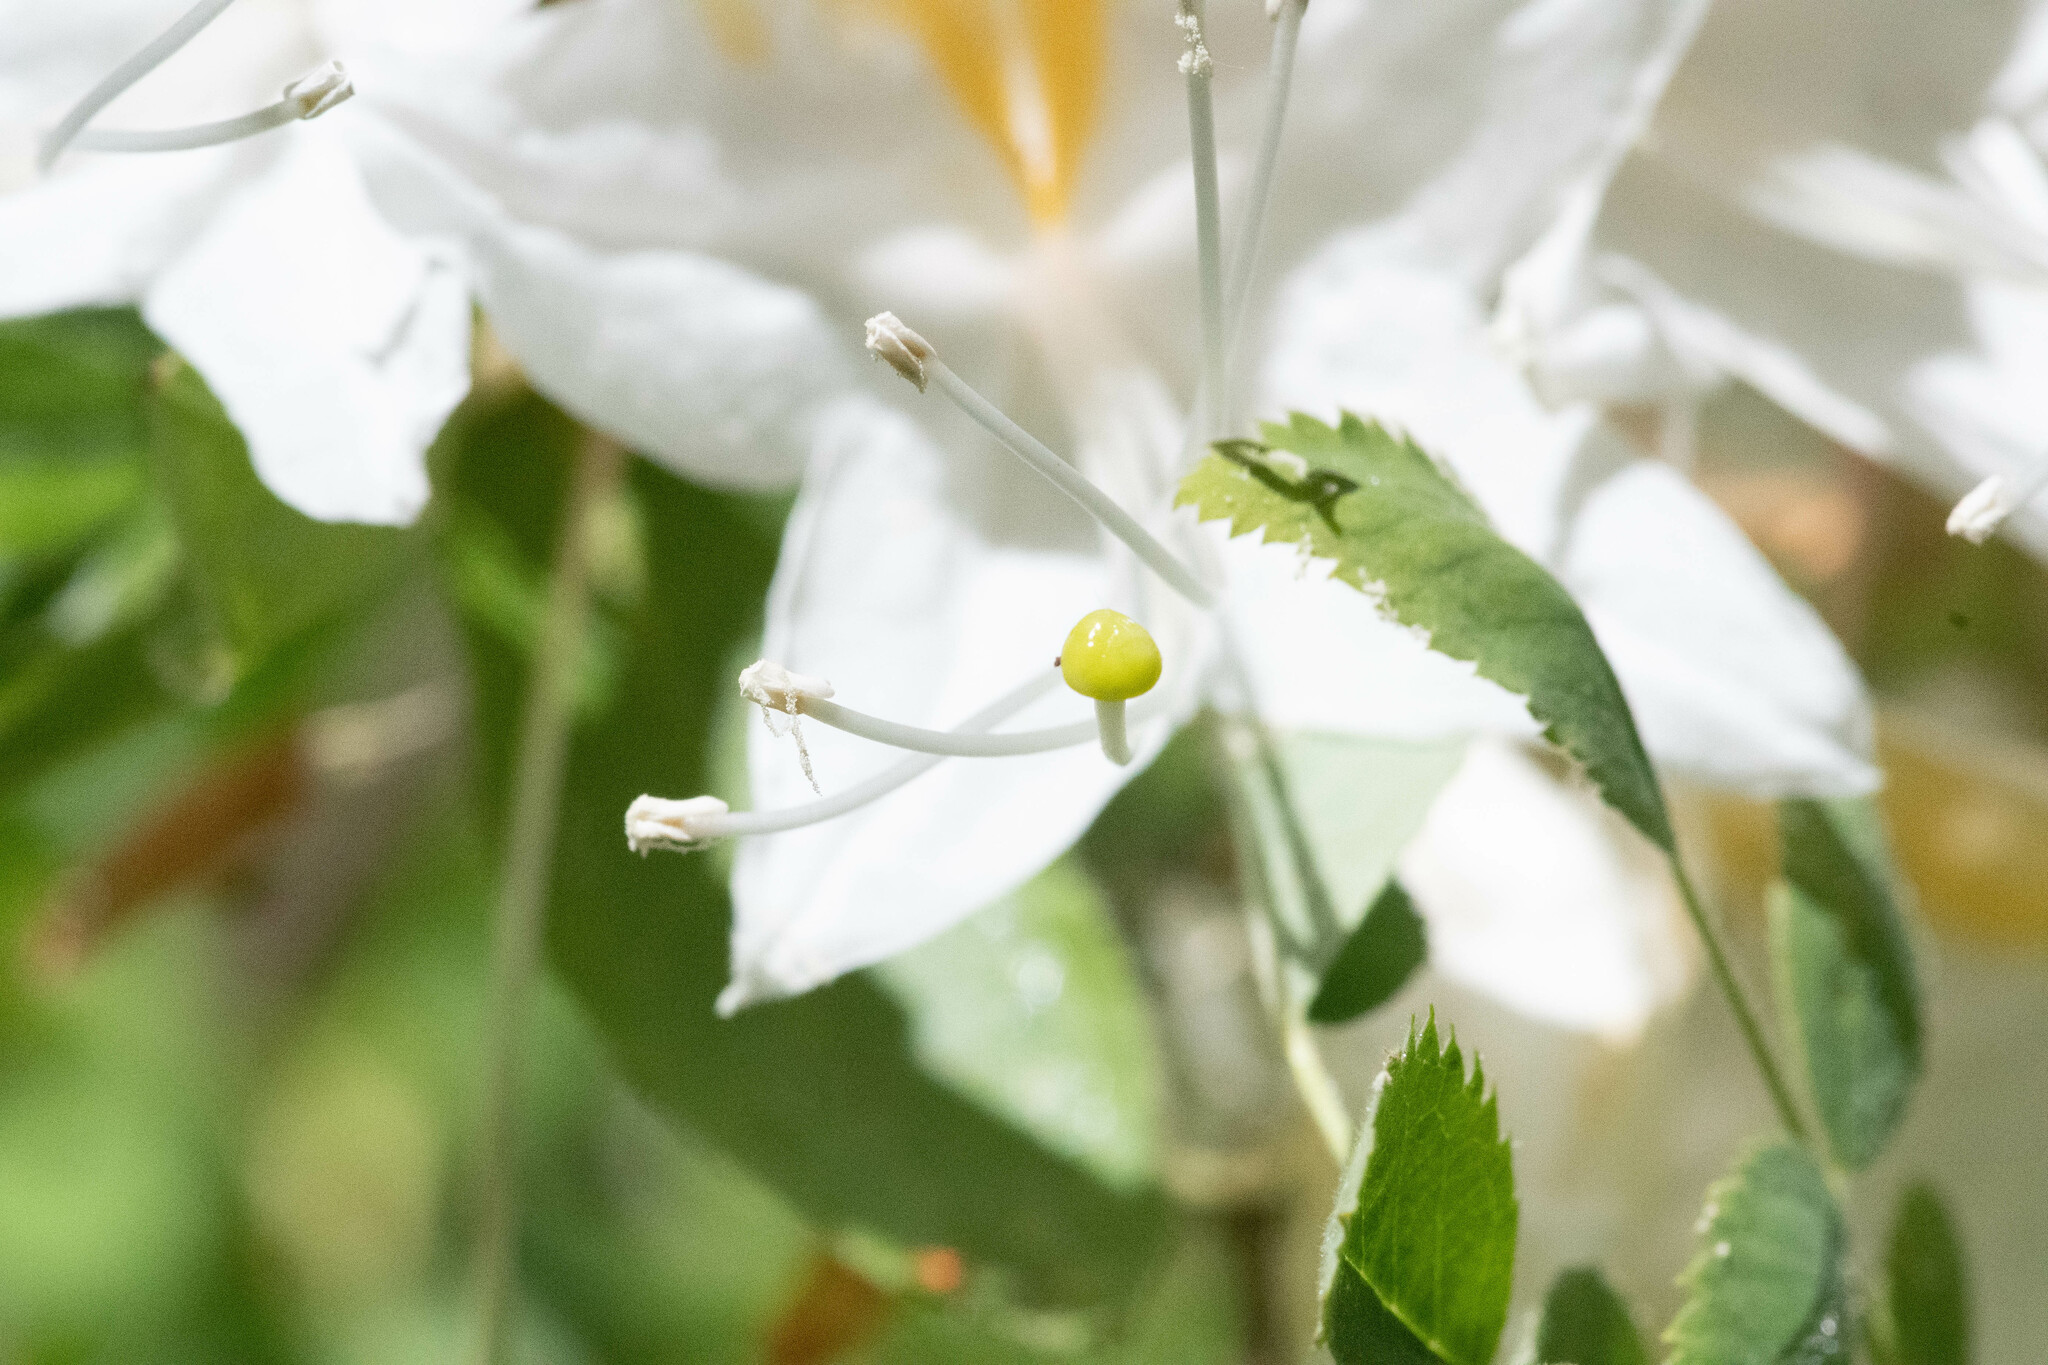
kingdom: Plantae
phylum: Tracheophyta
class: Magnoliopsida
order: Ericales
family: Ericaceae
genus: Rhododendron
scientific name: Rhododendron occidentale
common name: Western azalea
